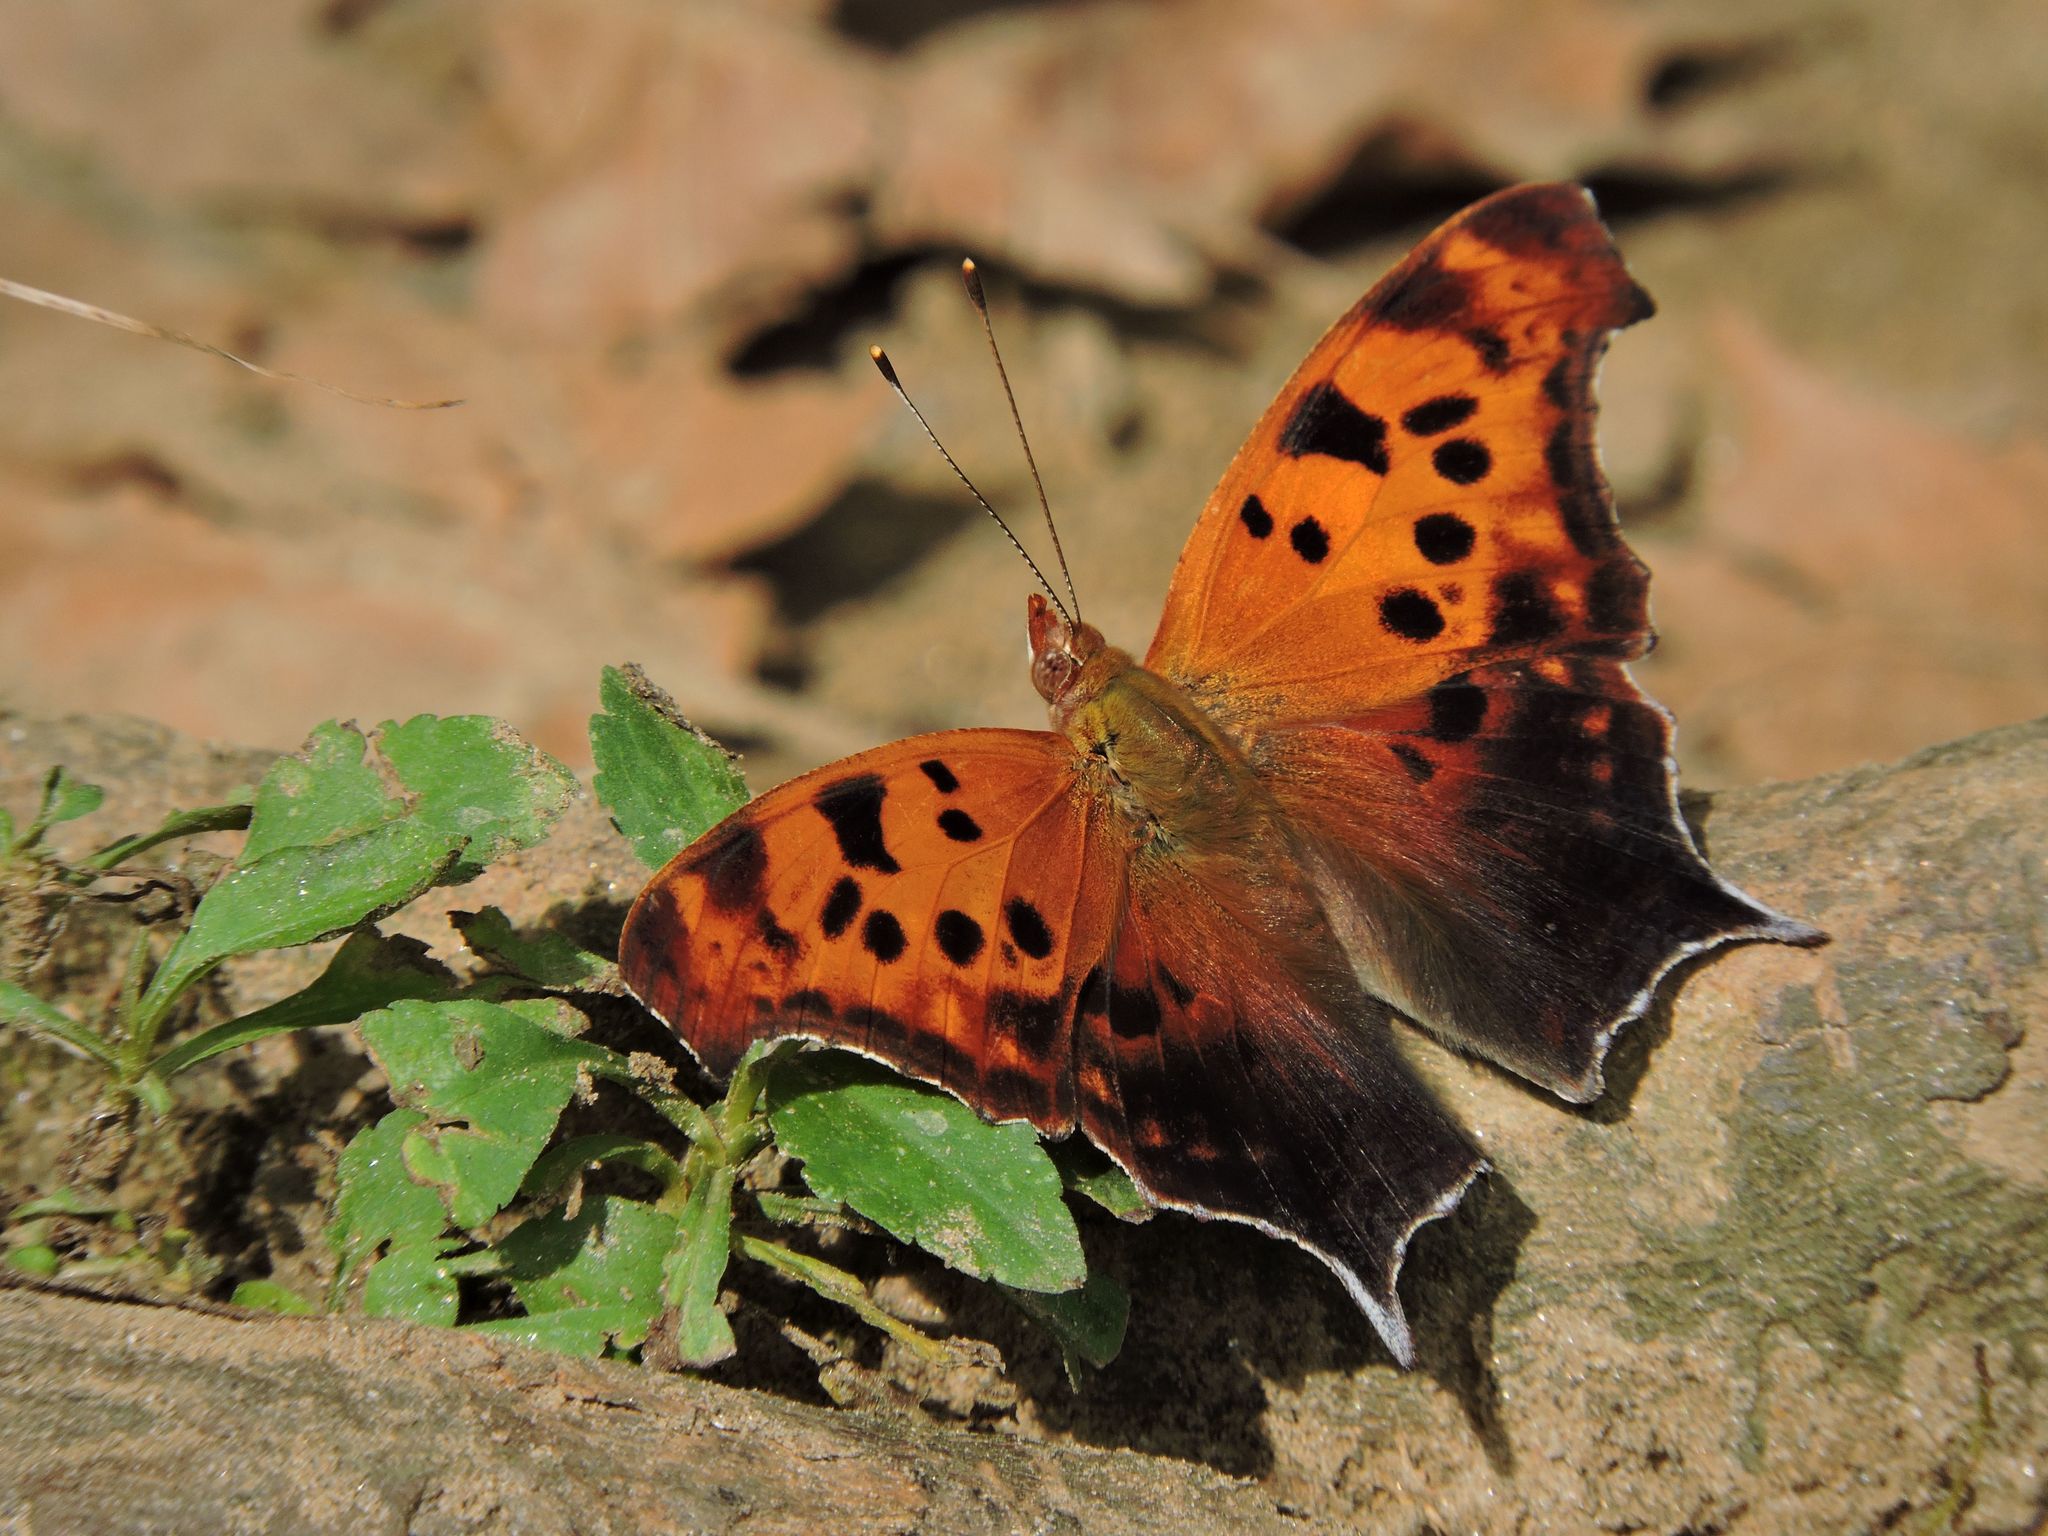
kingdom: Animalia
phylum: Arthropoda
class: Insecta
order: Lepidoptera
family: Nymphalidae
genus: Polygonia
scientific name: Polygonia interrogationis
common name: Question mark
